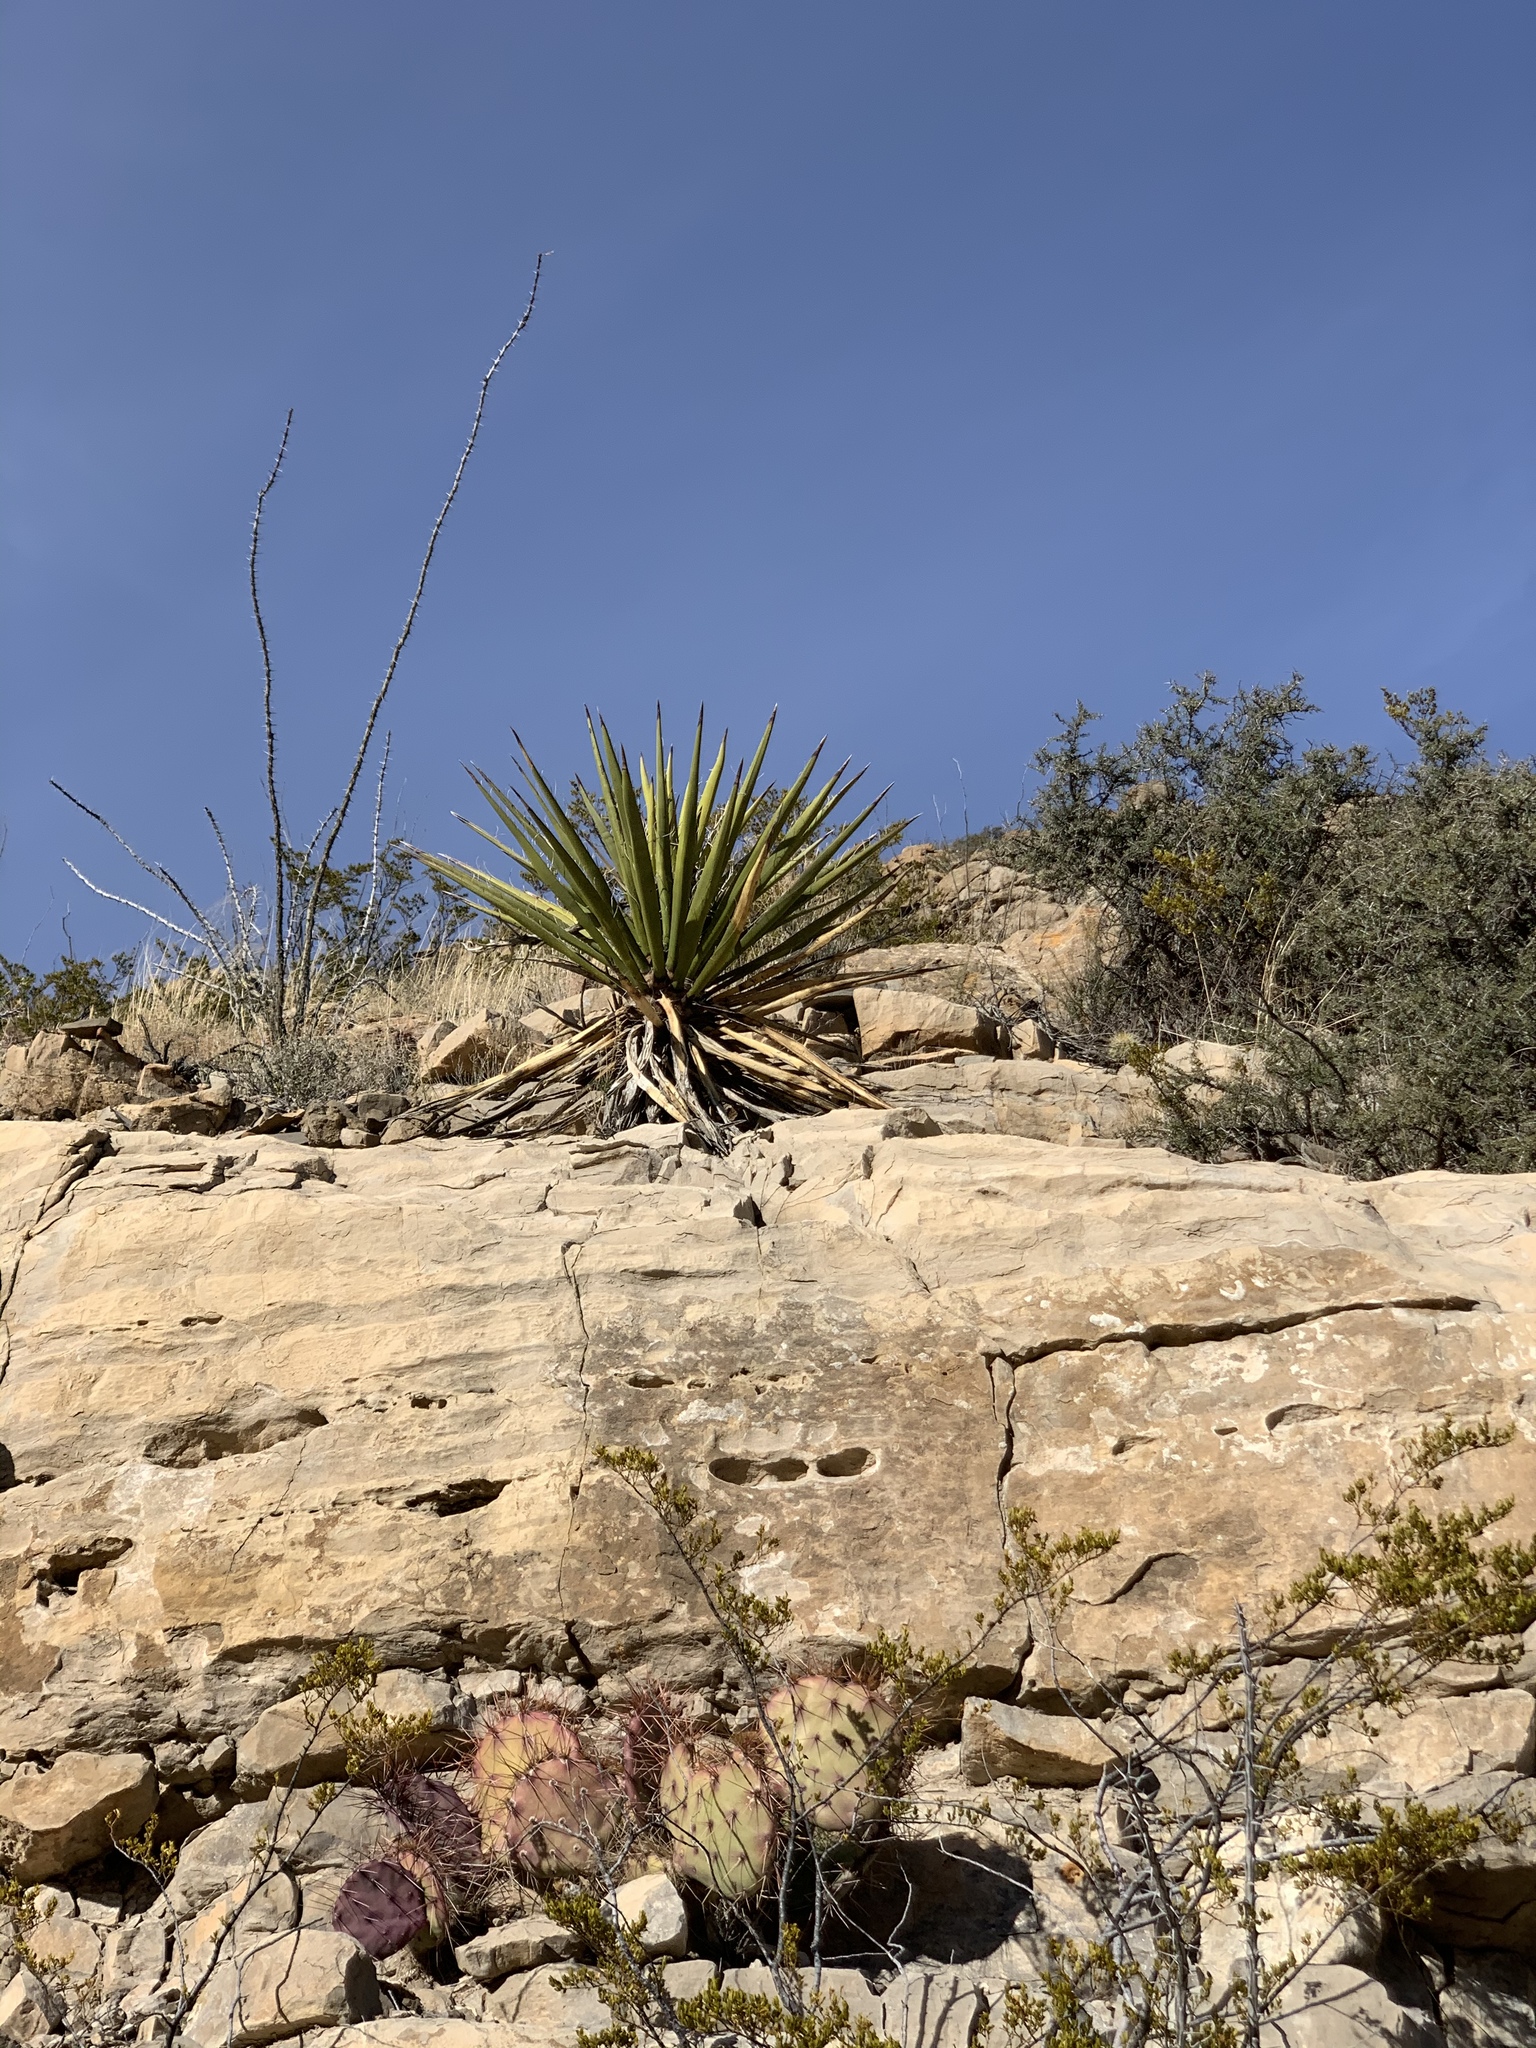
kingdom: Plantae
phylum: Tracheophyta
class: Liliopsida
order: Asparagales
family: Asparagaceae
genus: Yucca
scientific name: Yucca treculiana
